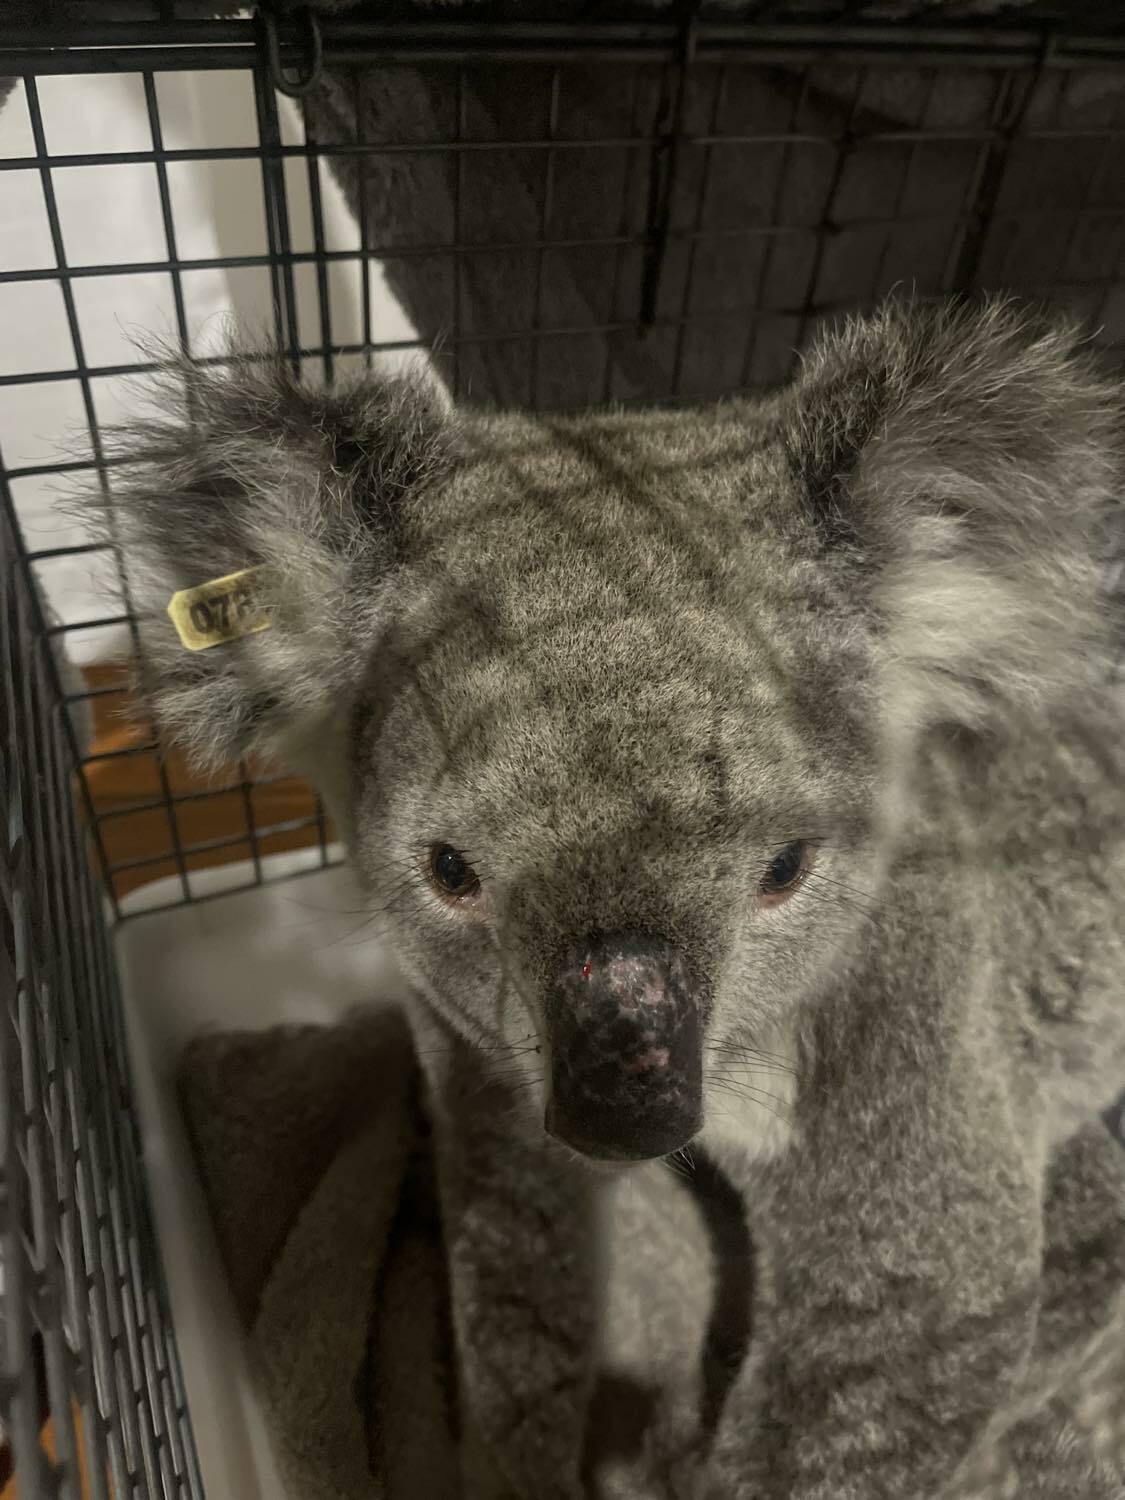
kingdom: Animalia
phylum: Chordata
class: Mammalia
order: Diprotodontia
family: Phascolarctidae
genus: Phascolarctos
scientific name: Phascolarctos cinereus
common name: Koala
